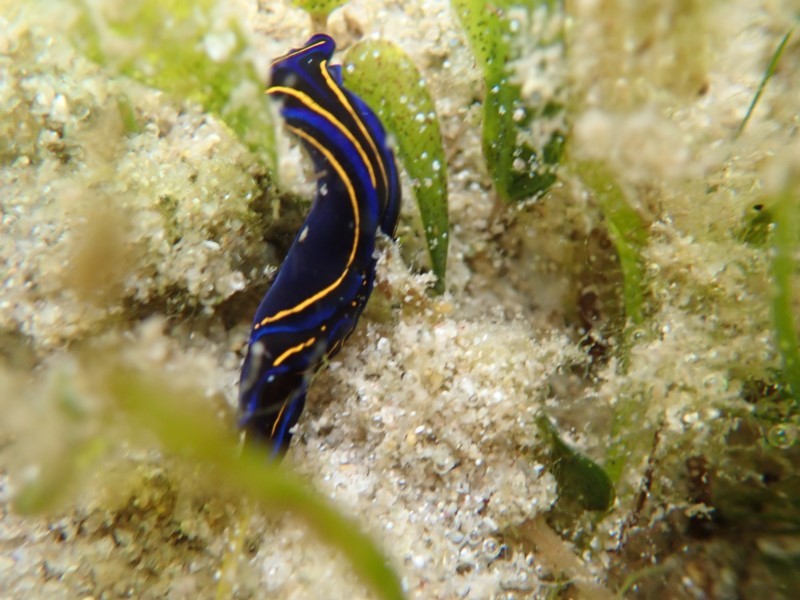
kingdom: Animalia
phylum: Mollusca
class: Gastropoda
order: Cephalaspidea
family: Aglajidae
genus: Chelidonura
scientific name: Chelidonura hirundinina
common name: Leech headshield slug
